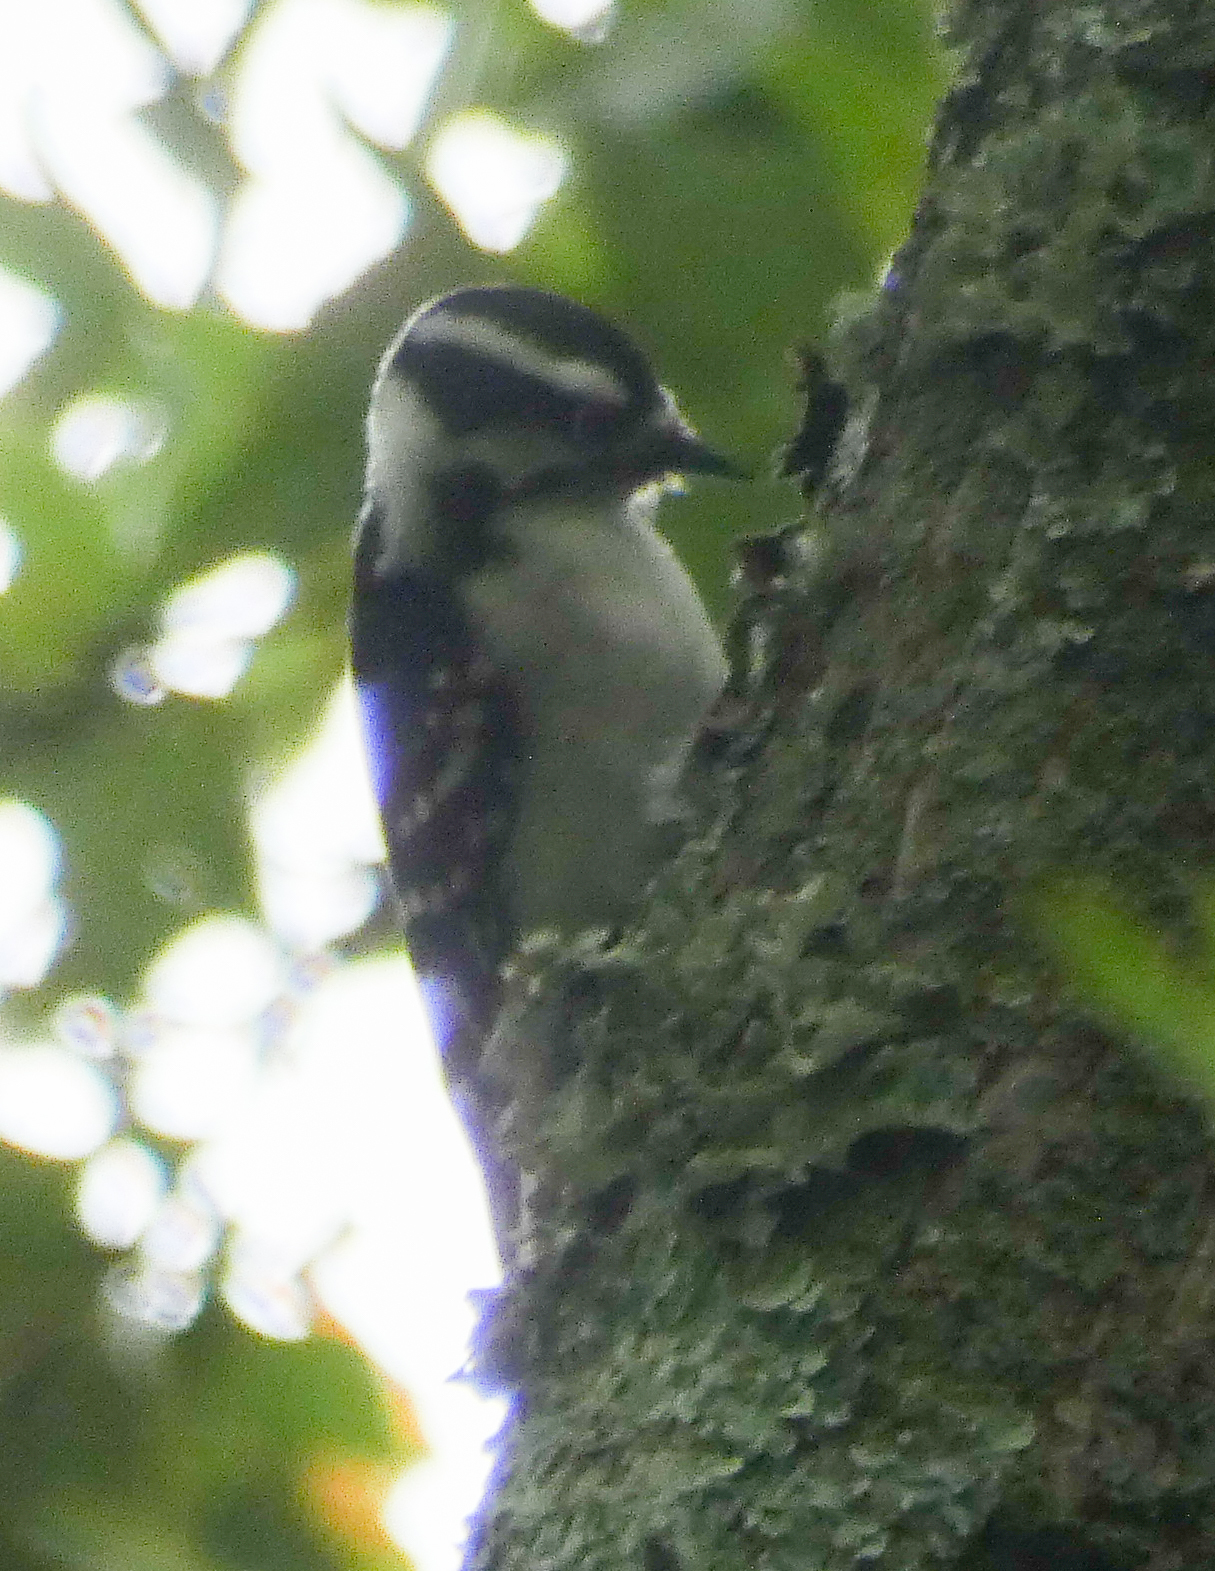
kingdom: Animalia
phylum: Chordata
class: Aves
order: Piciformes
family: Picidae
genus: Dryobates
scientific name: Dryobates pubescens
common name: Downy woodpecker
